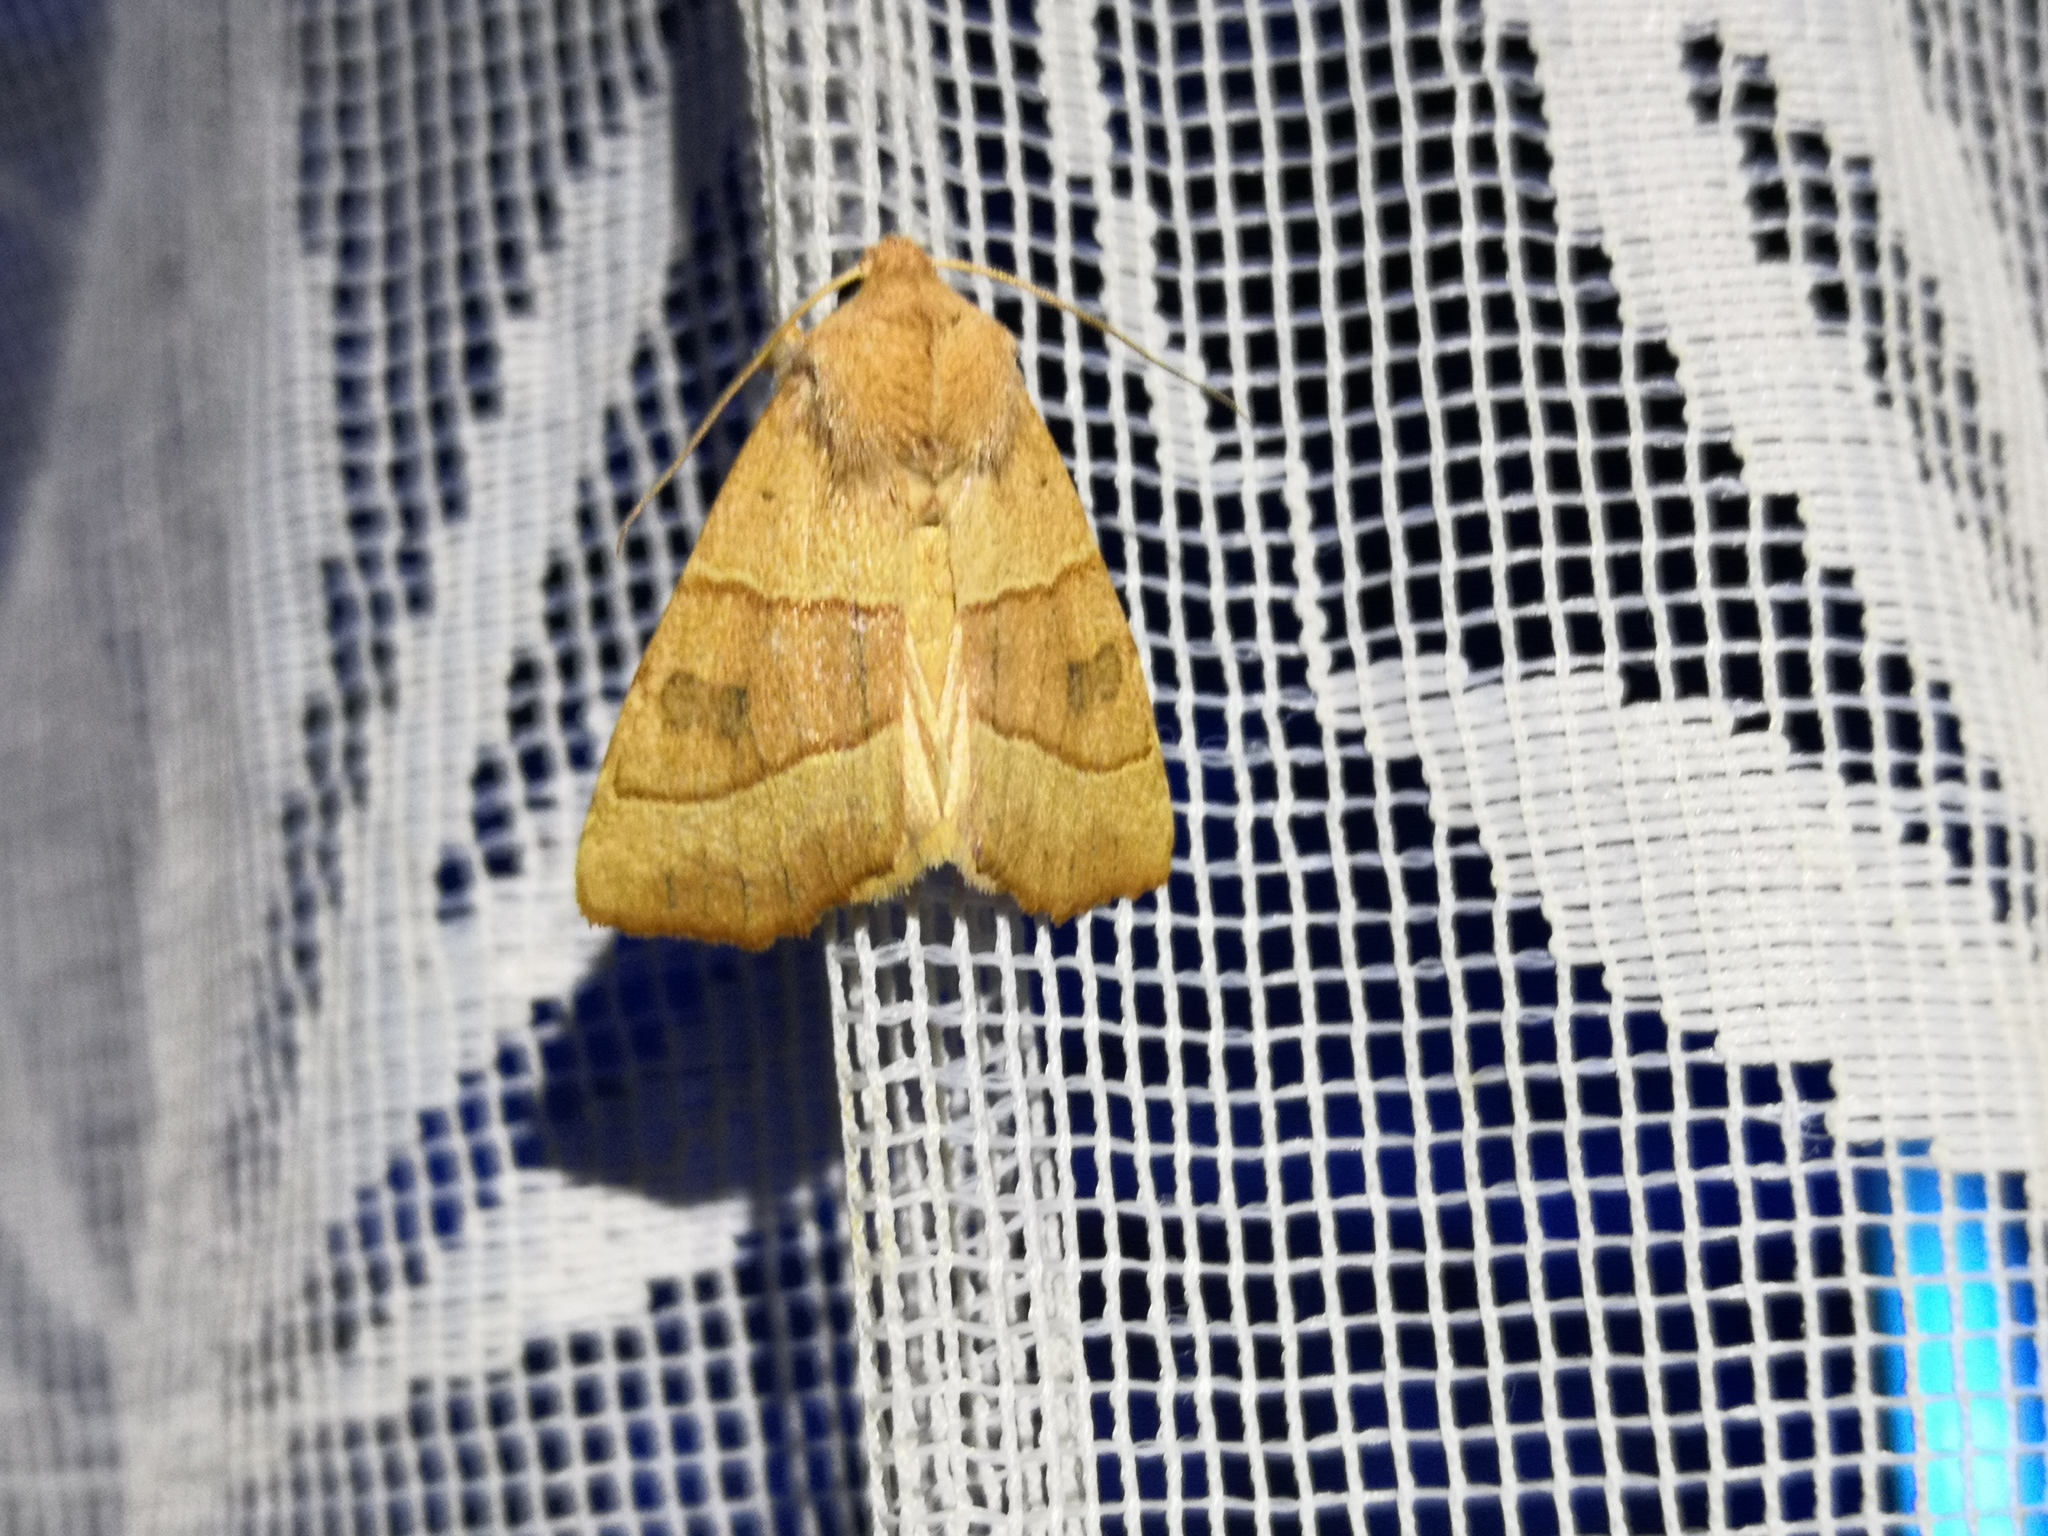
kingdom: Animalia
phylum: Arthropoda
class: Insecta
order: Lepidoptera
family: Noctuidae
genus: Atethmia
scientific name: Atethmia centrago
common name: Centre-barred sallow
